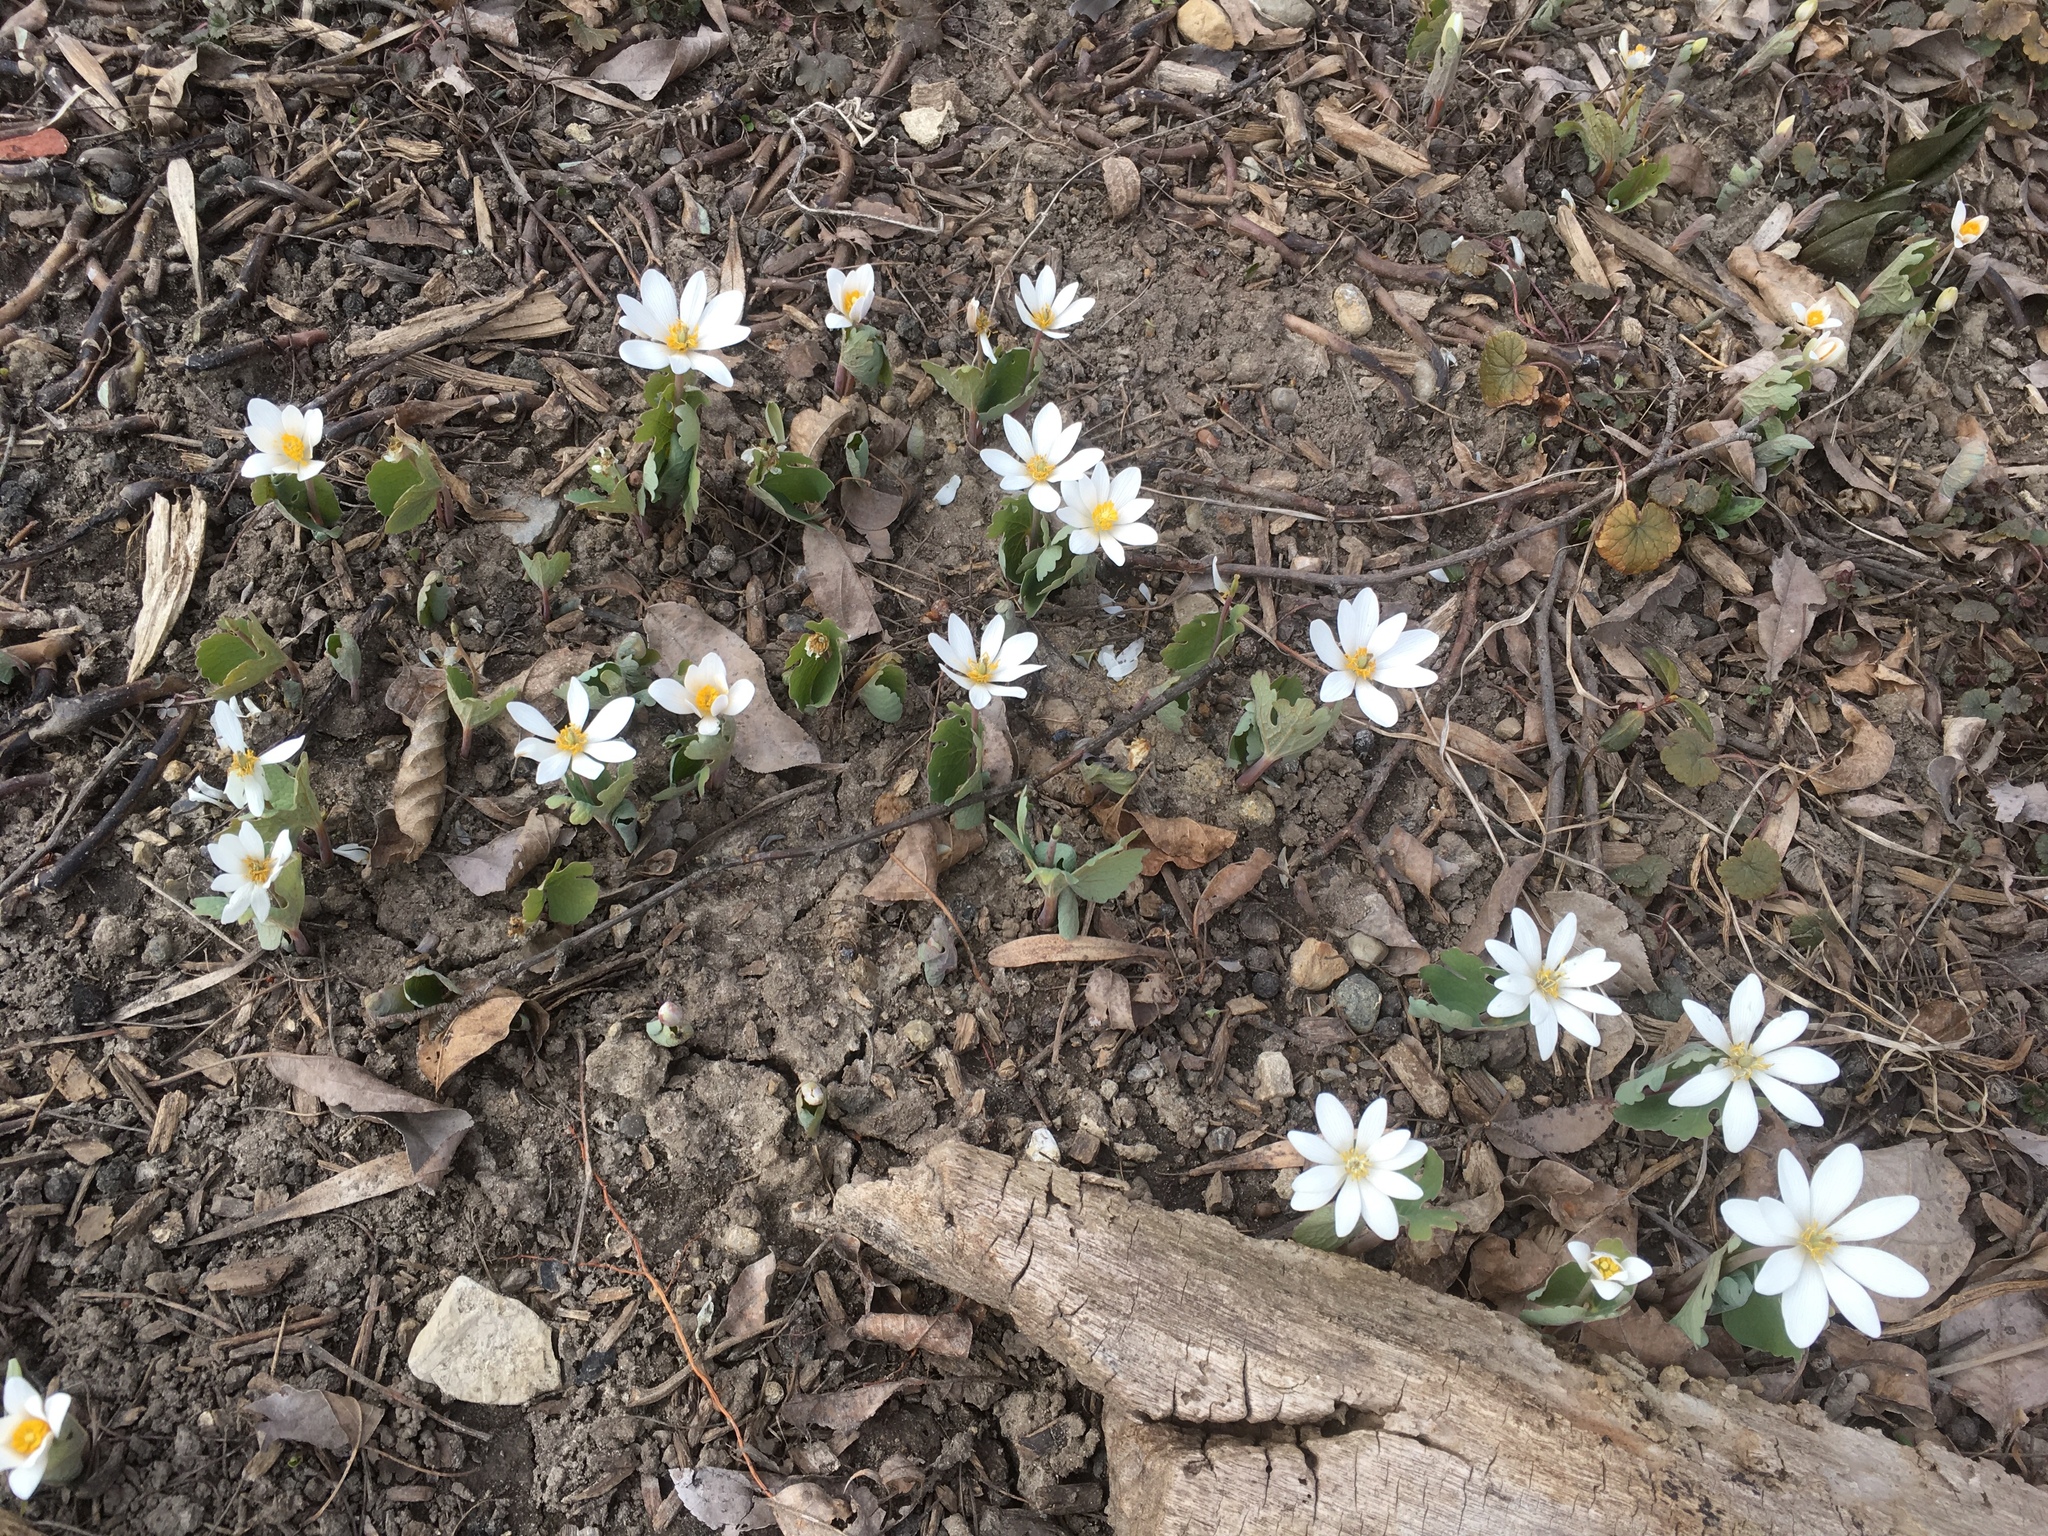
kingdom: Plantae
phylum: Tracheophyta
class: Magnoliopsida
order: Ranunculales
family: Papaveraceae
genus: Sanguinaria
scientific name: Sanguinaria canadensis
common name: Bloodroot
